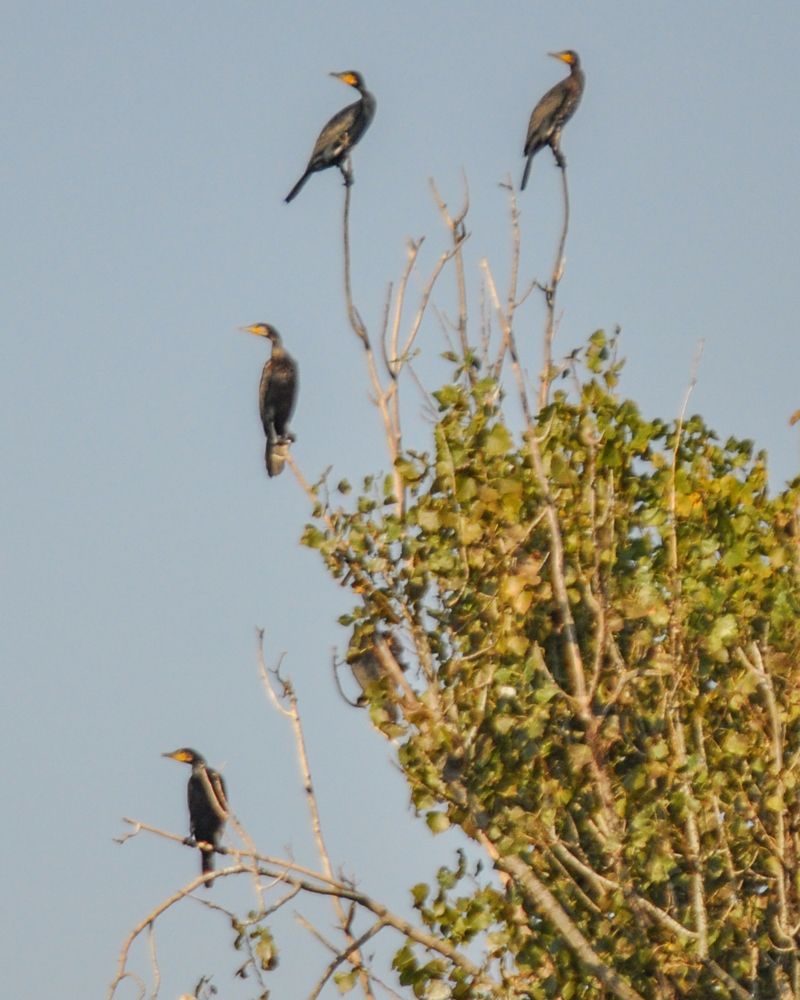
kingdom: Animalia
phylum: Chordata
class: Aves
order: Suliformes
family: Phalacrocoracidae
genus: Phalacrocorax
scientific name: Phalacrocorax carbo
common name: Great cormorant
